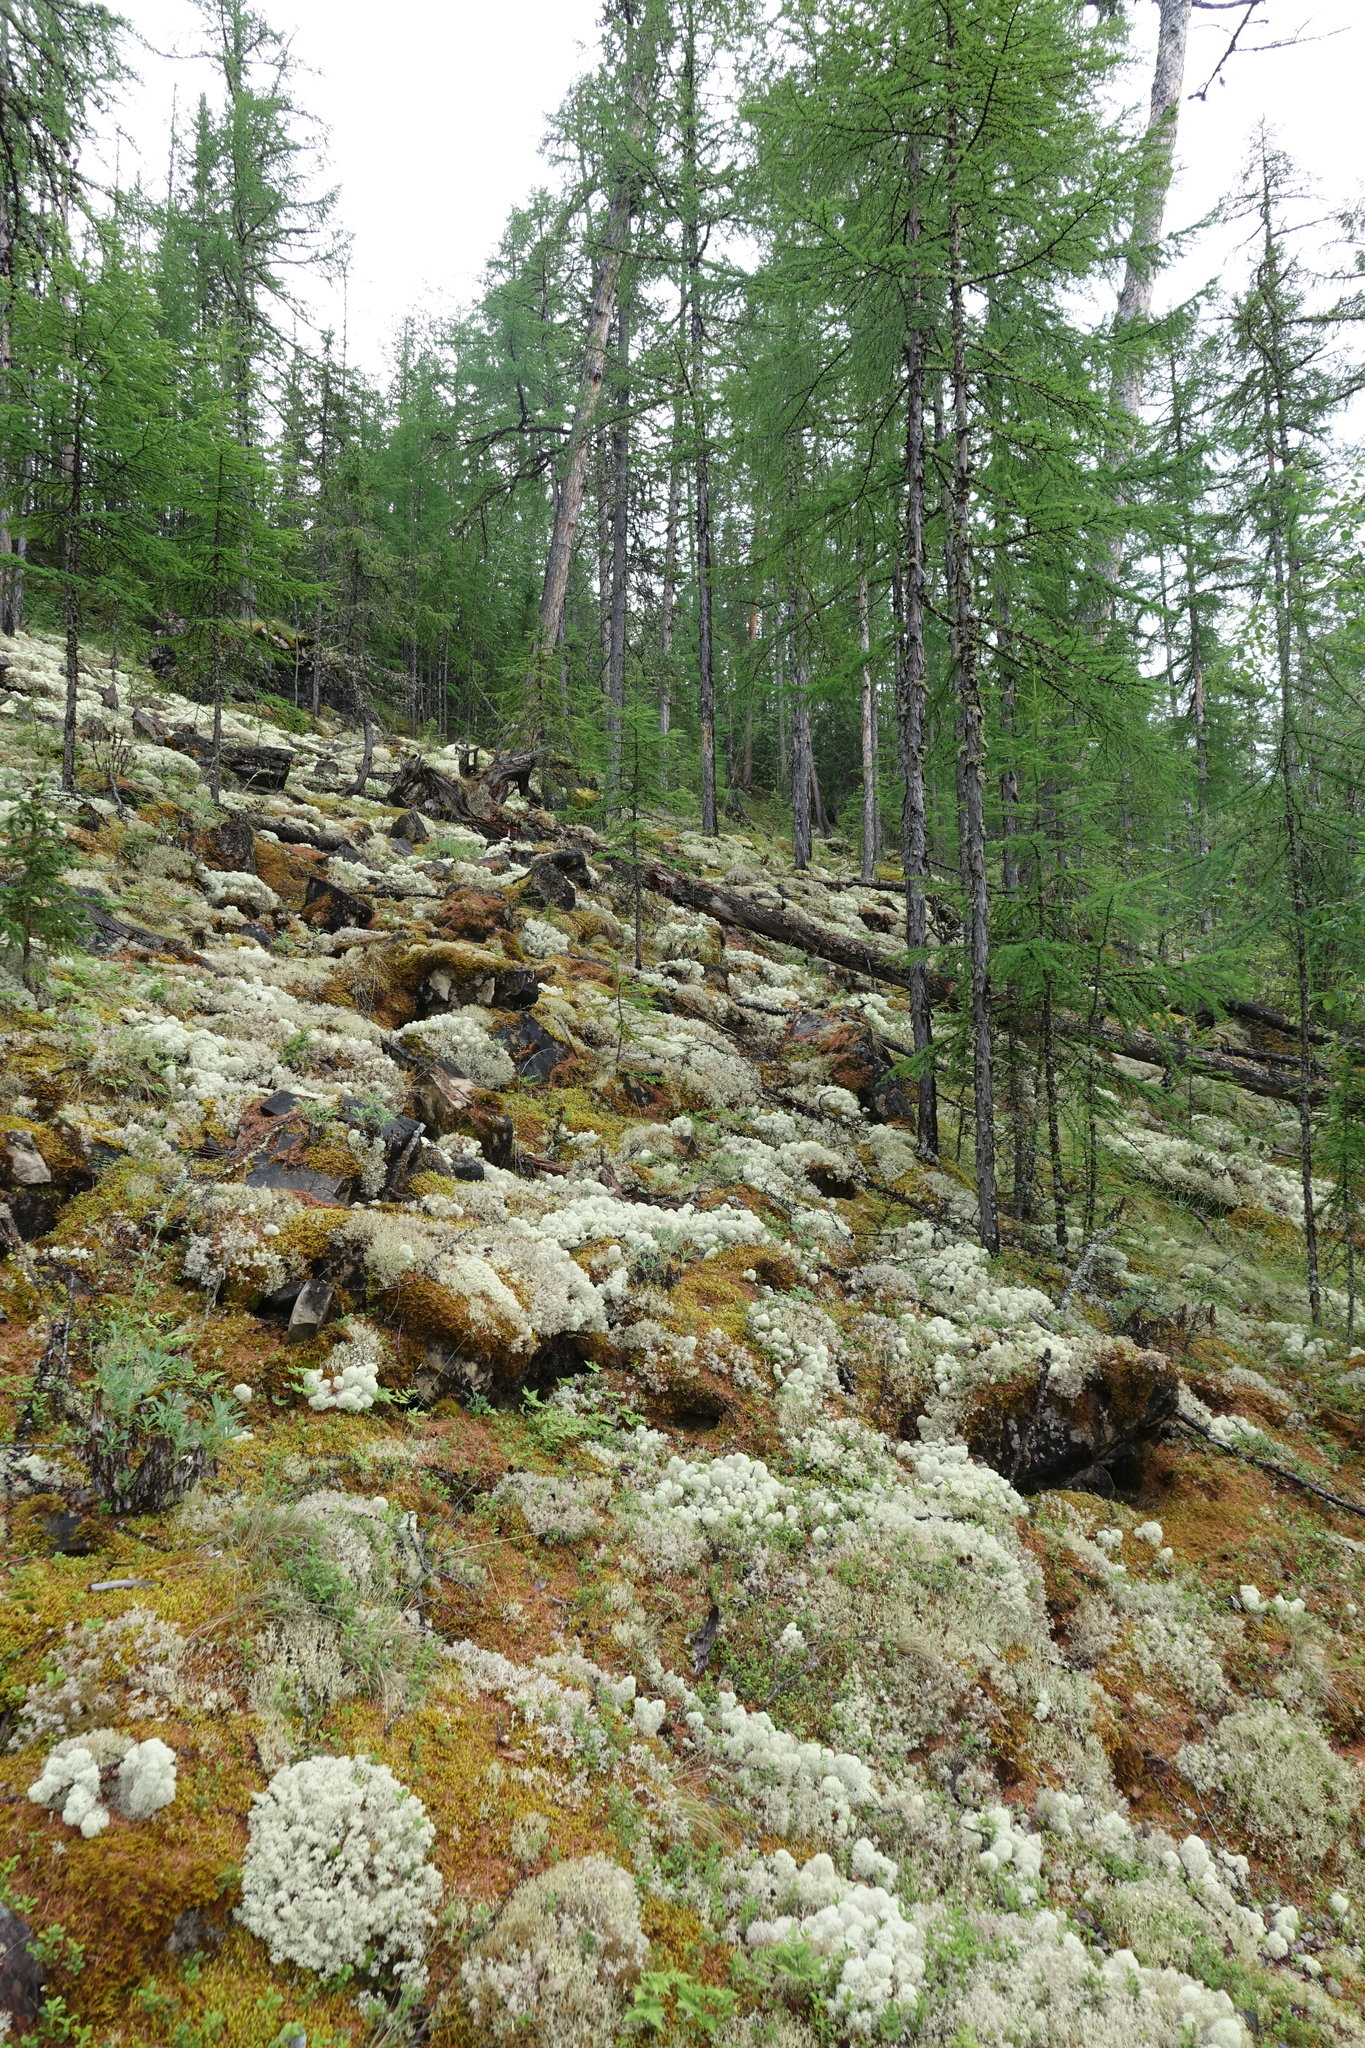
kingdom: Plantae
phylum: Tracheophyta
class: Pinopsida
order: Pinales
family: Pinaceae
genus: Larix
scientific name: Larix gmelinii
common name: Dahurian larch
